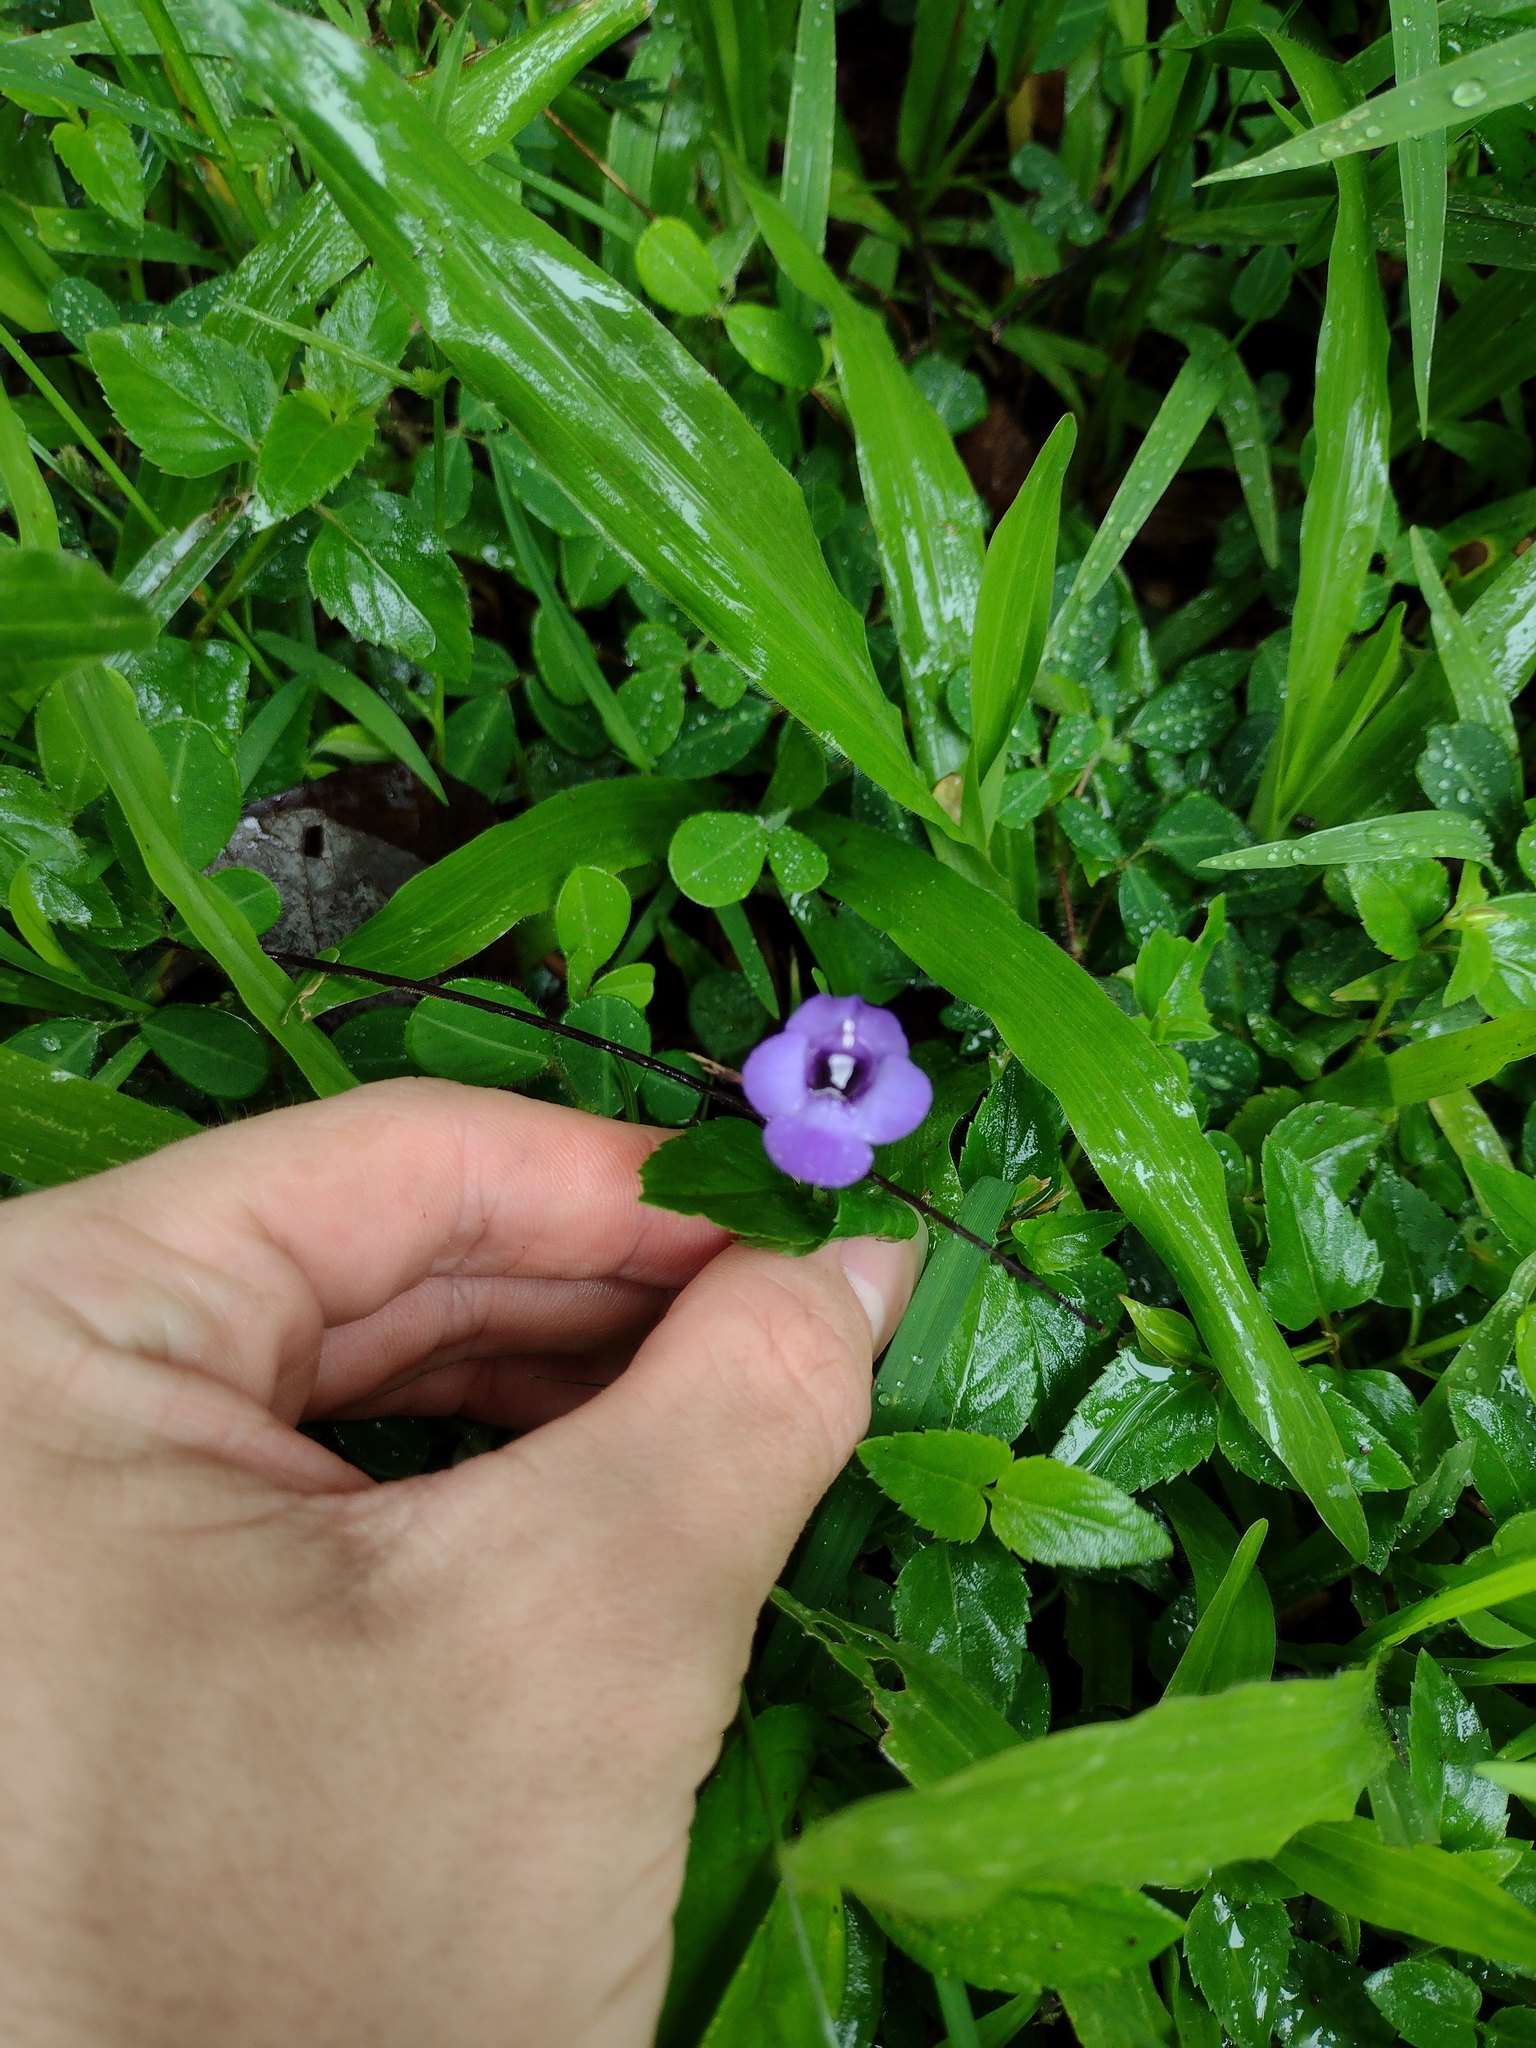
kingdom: Plantae
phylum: Tracheophyta
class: Magnoliopsida
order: Lamiales
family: Linderniaceae
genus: Torenia
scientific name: Torenia asiatica
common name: Wishbone flower
